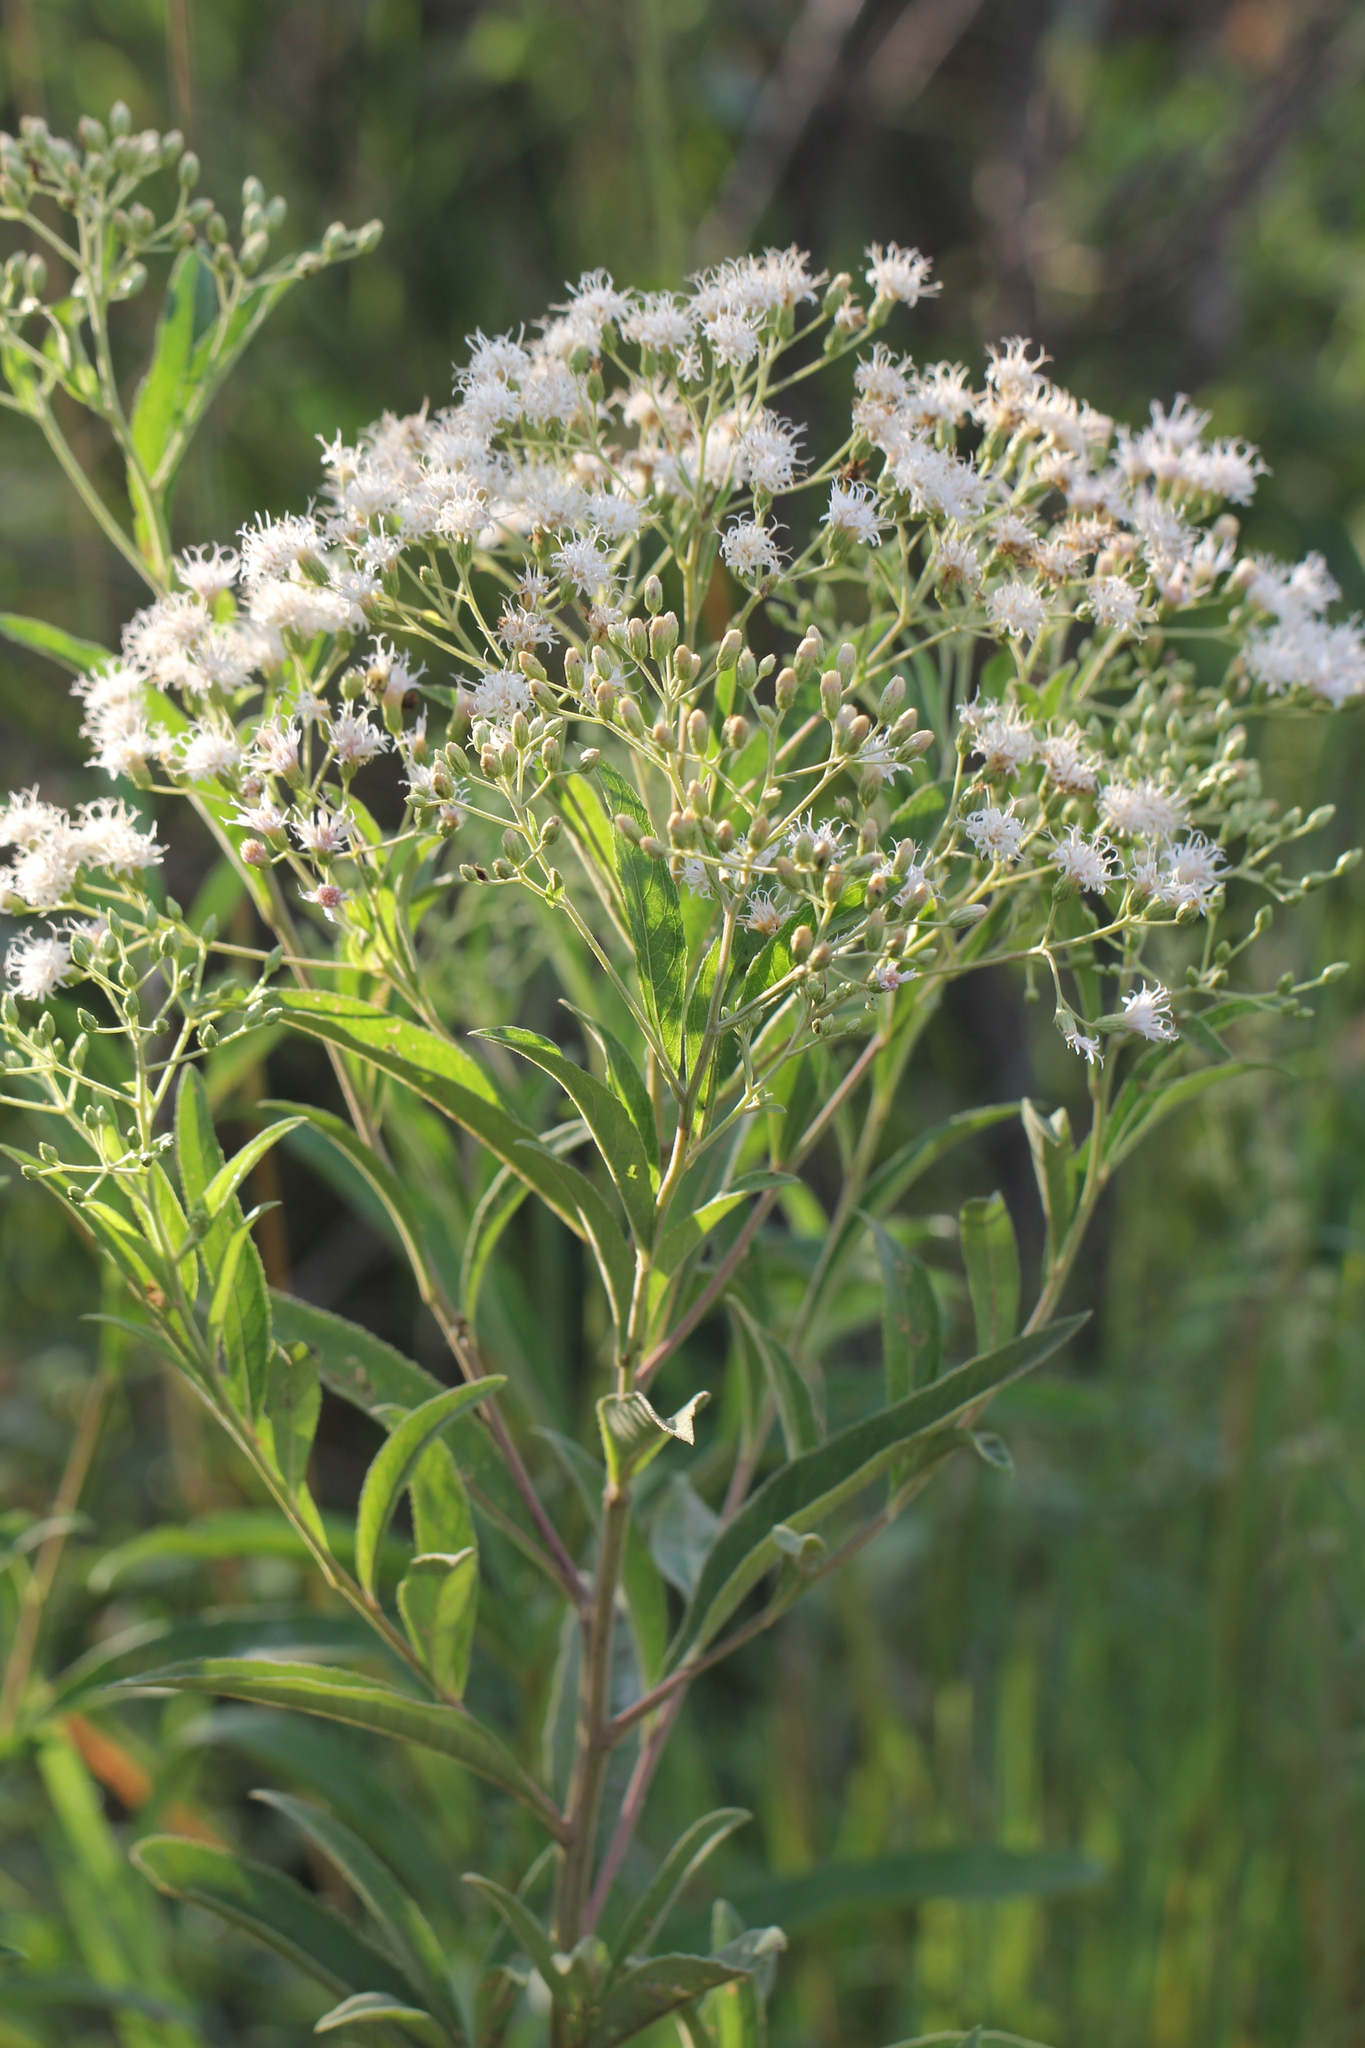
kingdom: Plantae
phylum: Tracheophyta
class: Magnoliopsida
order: Asterales
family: Asteraceae
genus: Vernonanthura
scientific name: Vernonanthura tweedieana
